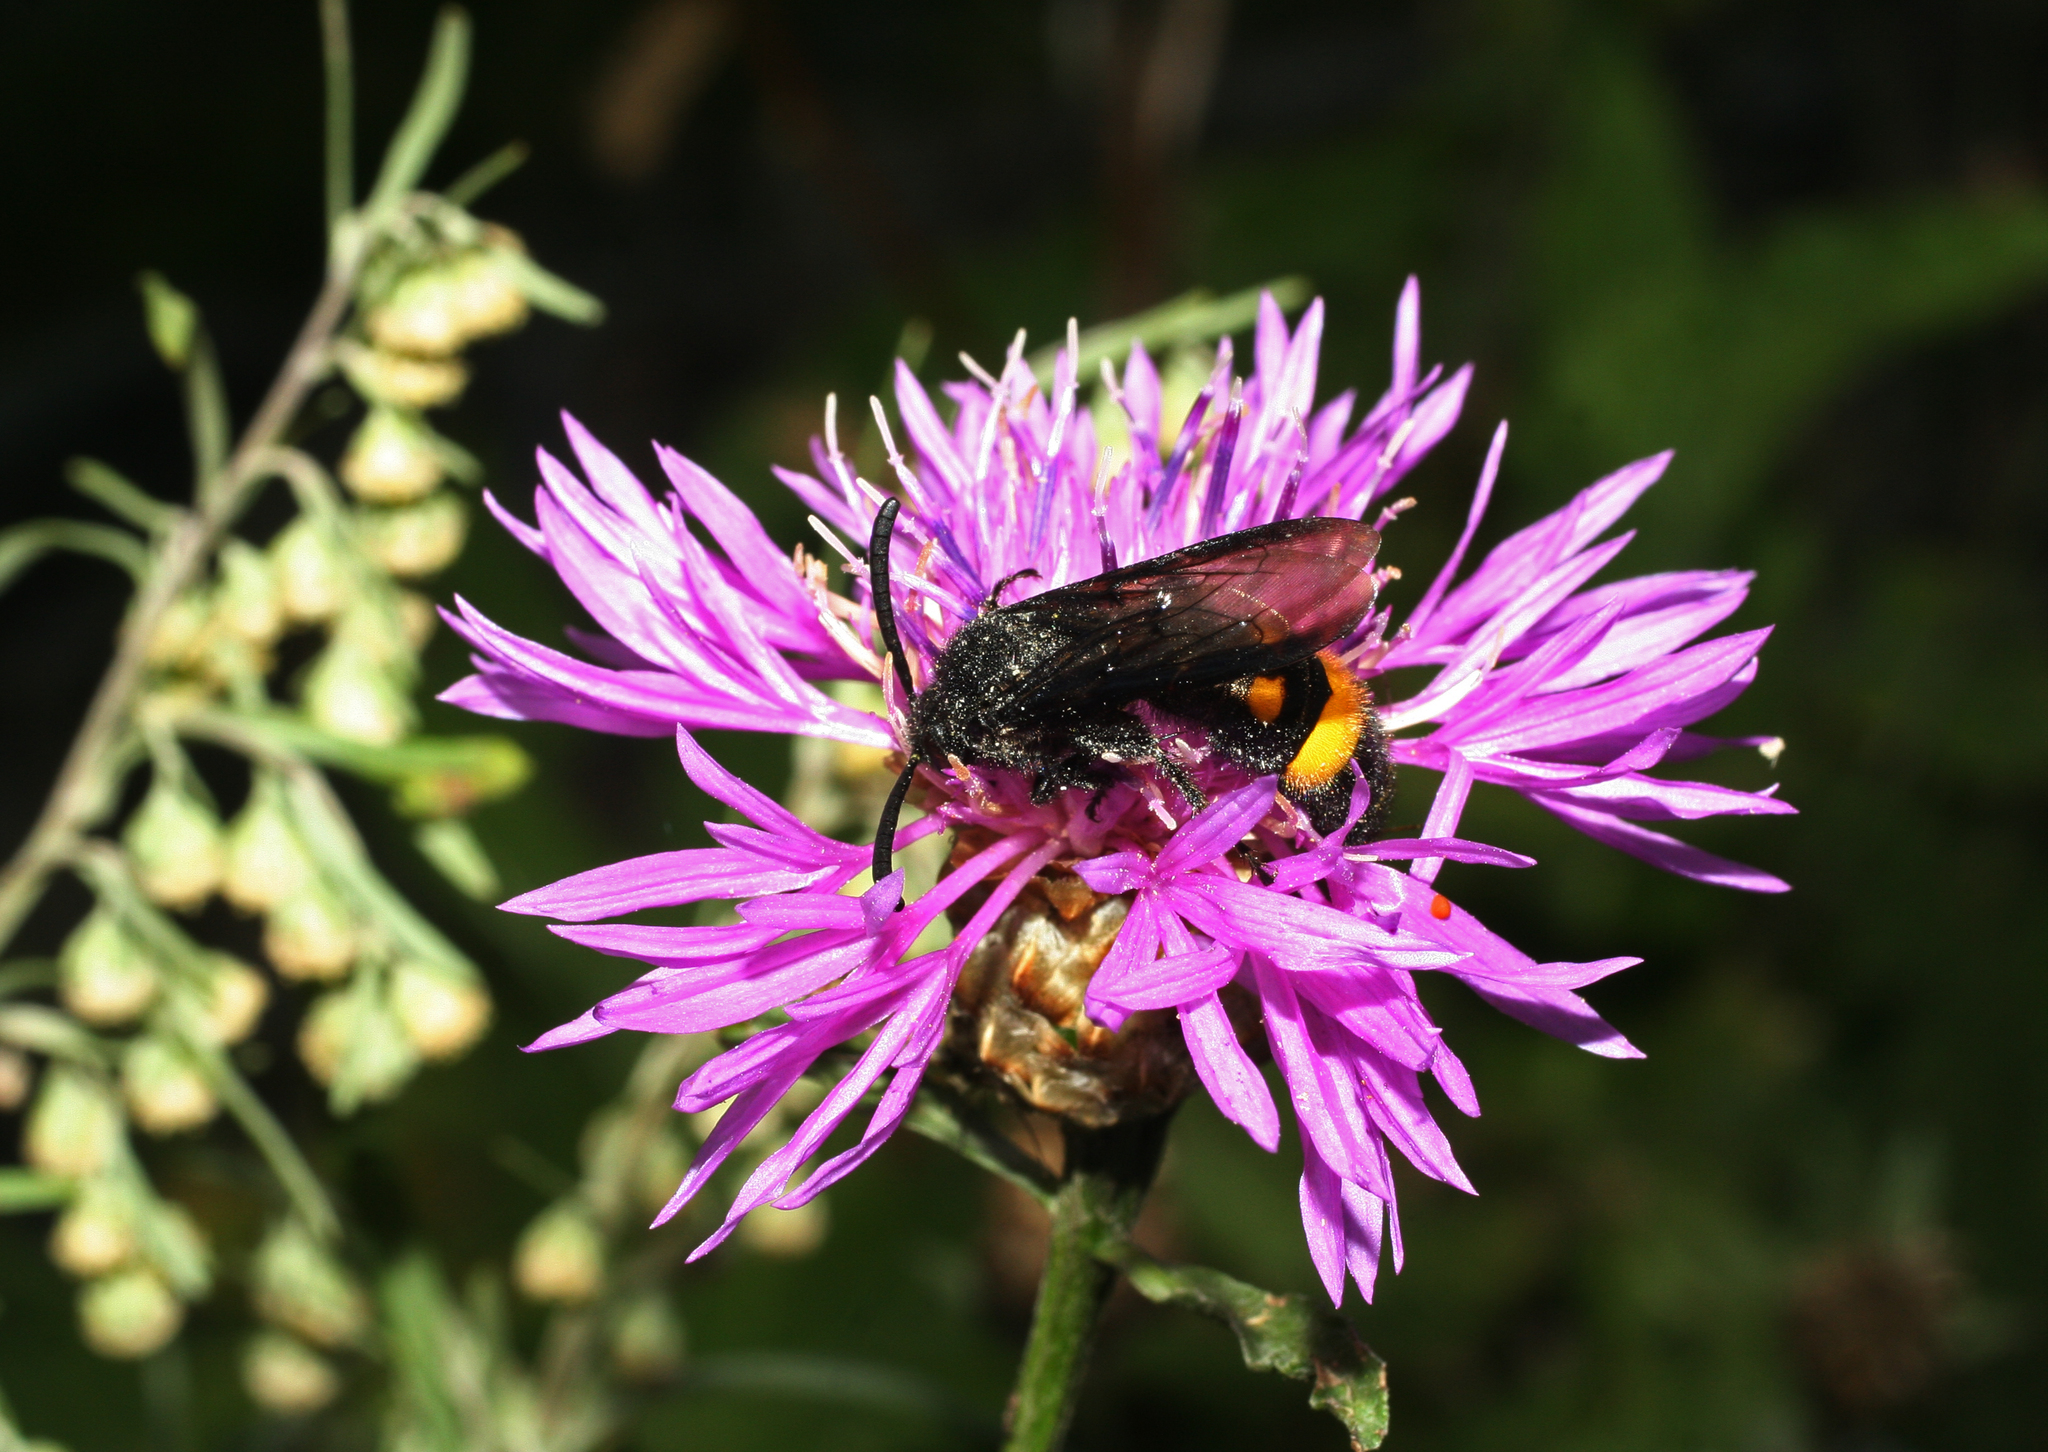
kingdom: Plantae
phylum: Tracheophyta
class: Magnoliopsida
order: Asterales
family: Asteraceae
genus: Centaurea
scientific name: Centaurea jacea
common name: Brown knapweed
